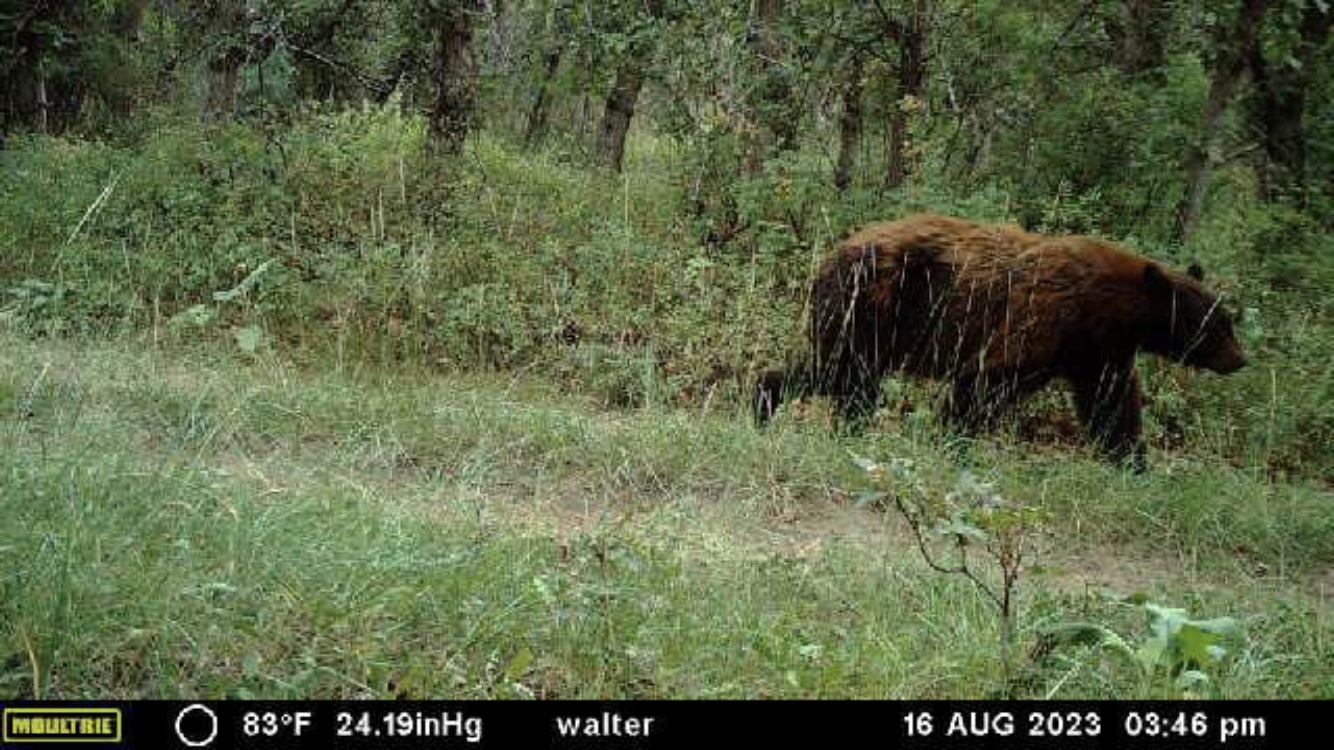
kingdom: Animalia
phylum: Chordata
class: Mammalia
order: Carnivora
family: Ursidae
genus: Ursus
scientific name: Ursus americanus
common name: American black bear
